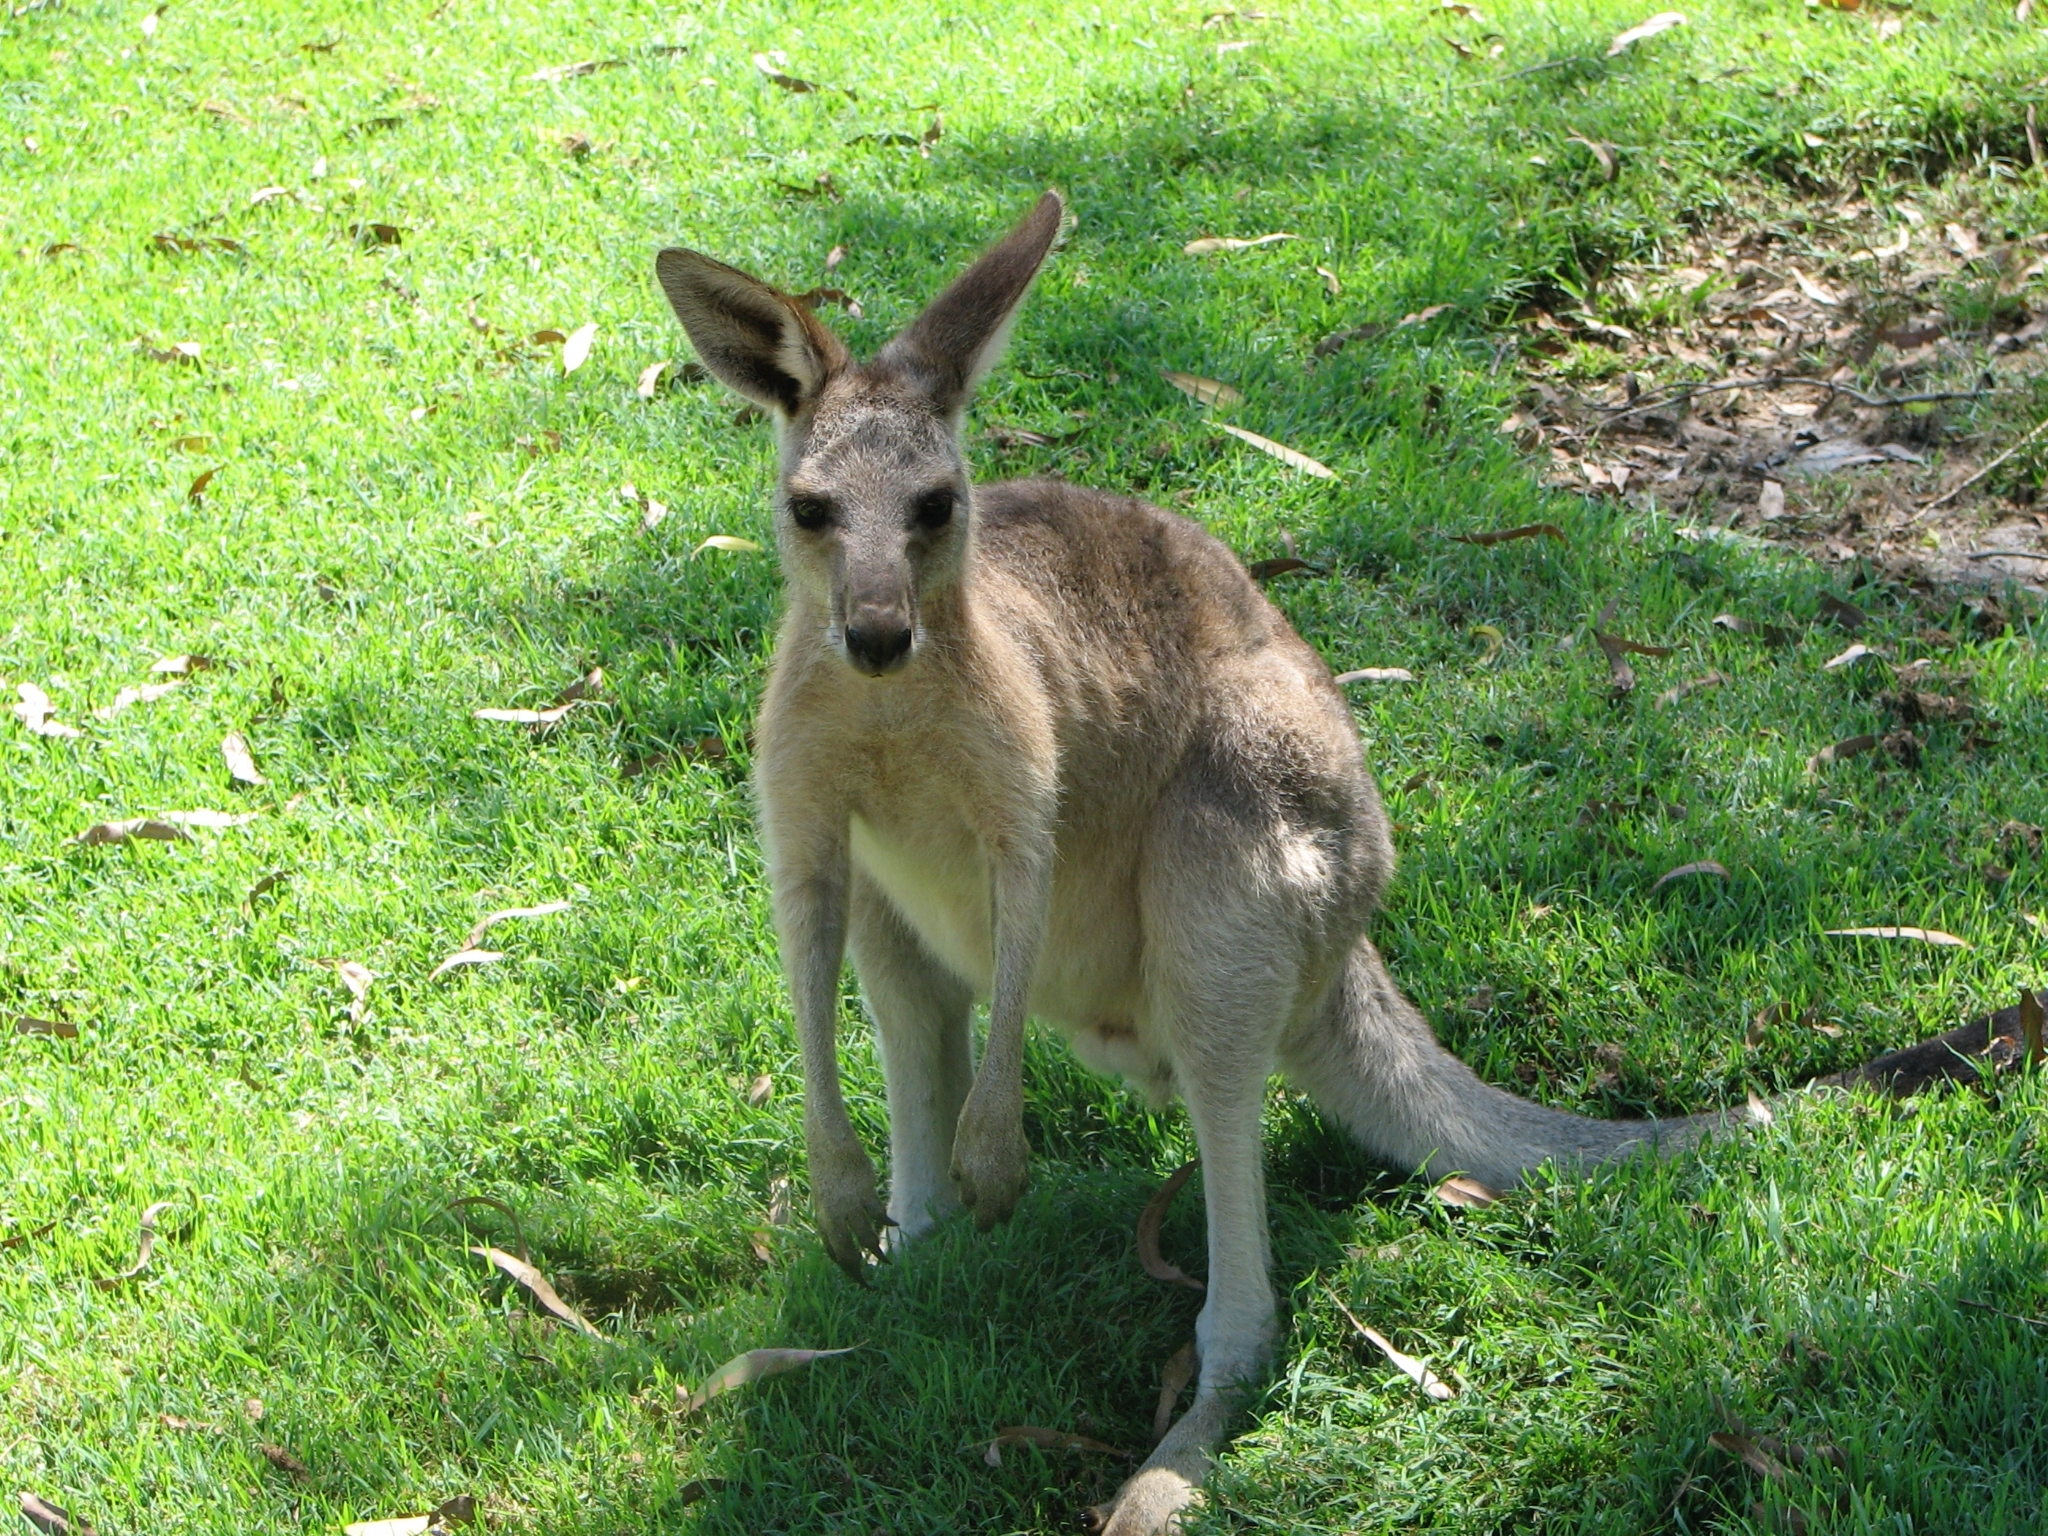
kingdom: Animalia
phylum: Chordata
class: Mammalia
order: Diprotodontia
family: Macropodidae
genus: Macropus
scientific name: Macropus giganteus
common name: Eastern grey kangaroo
